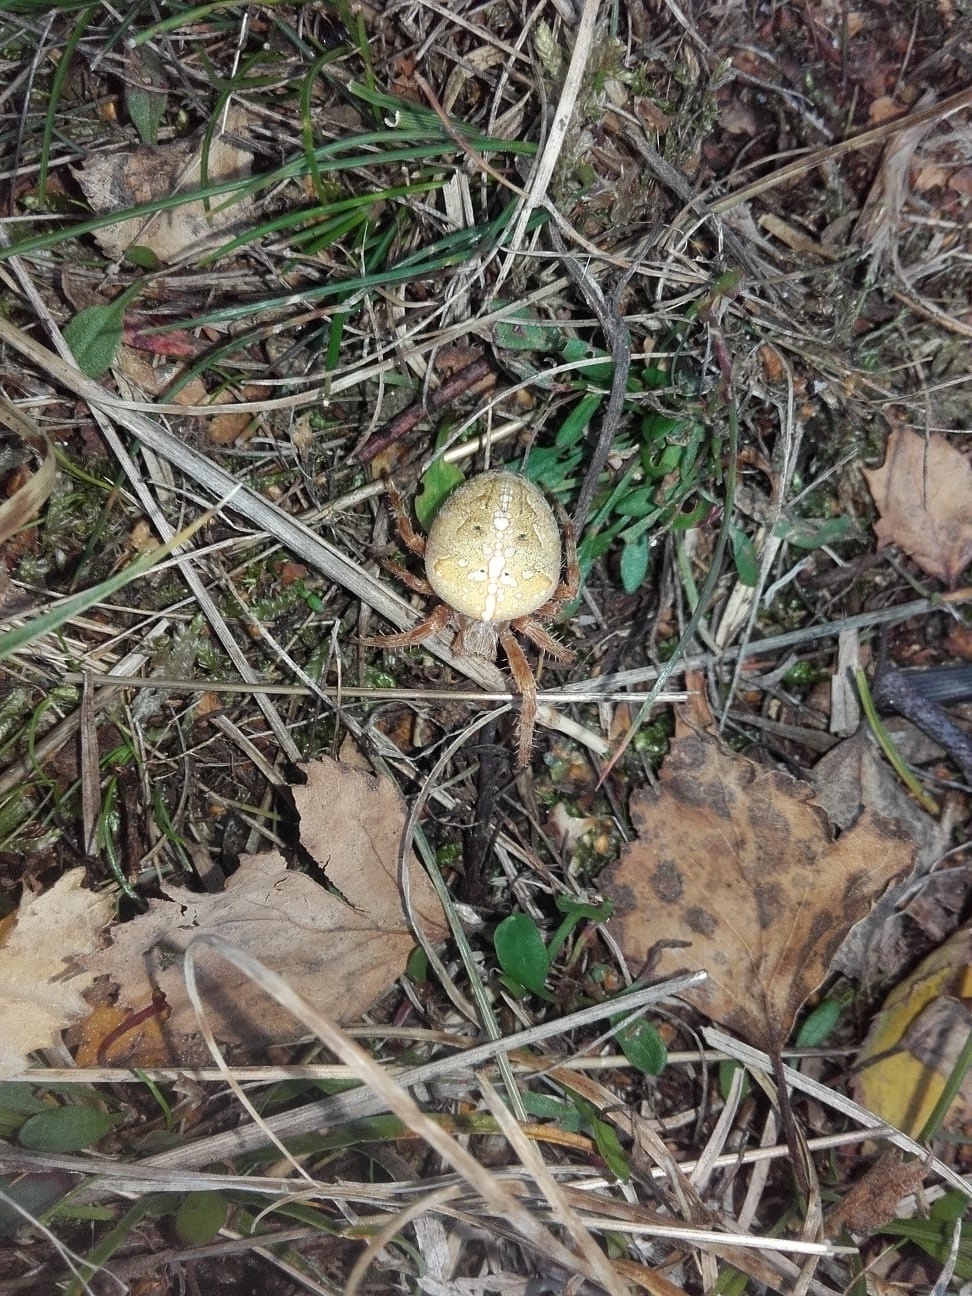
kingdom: Animalia
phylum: Arthropoda
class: Arachnida
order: Araneae
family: Araneidae
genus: Araneus
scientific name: Araneus diadematus
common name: Cross orbweaver
